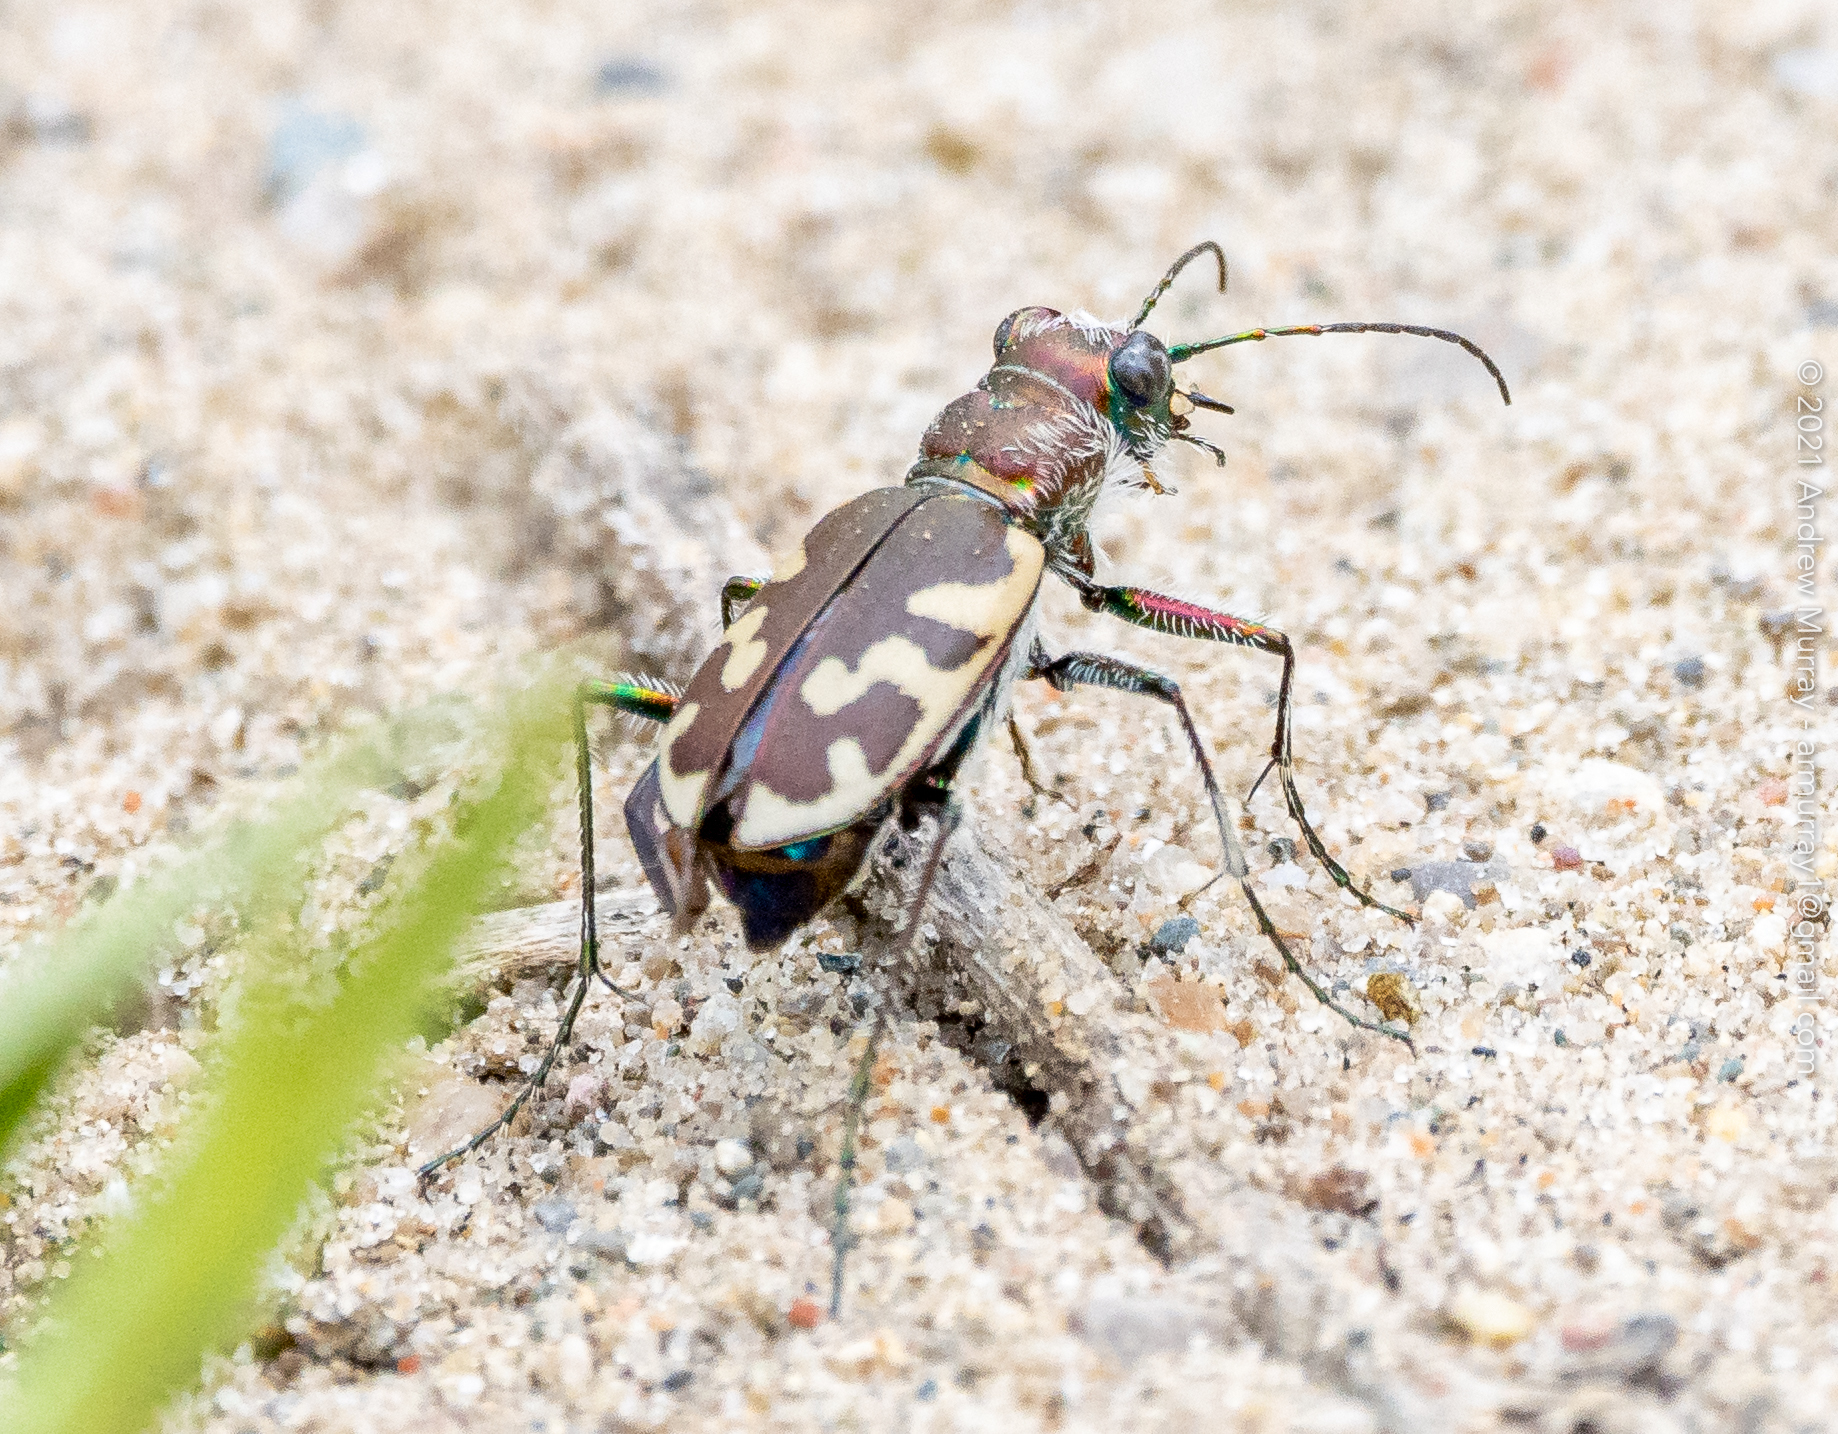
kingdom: Animalia
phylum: Arthropoda
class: Insecta
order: Coleoptera
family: Carabidae
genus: Cicindela
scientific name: Cicindela formosa
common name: Big sand tiger beetle
